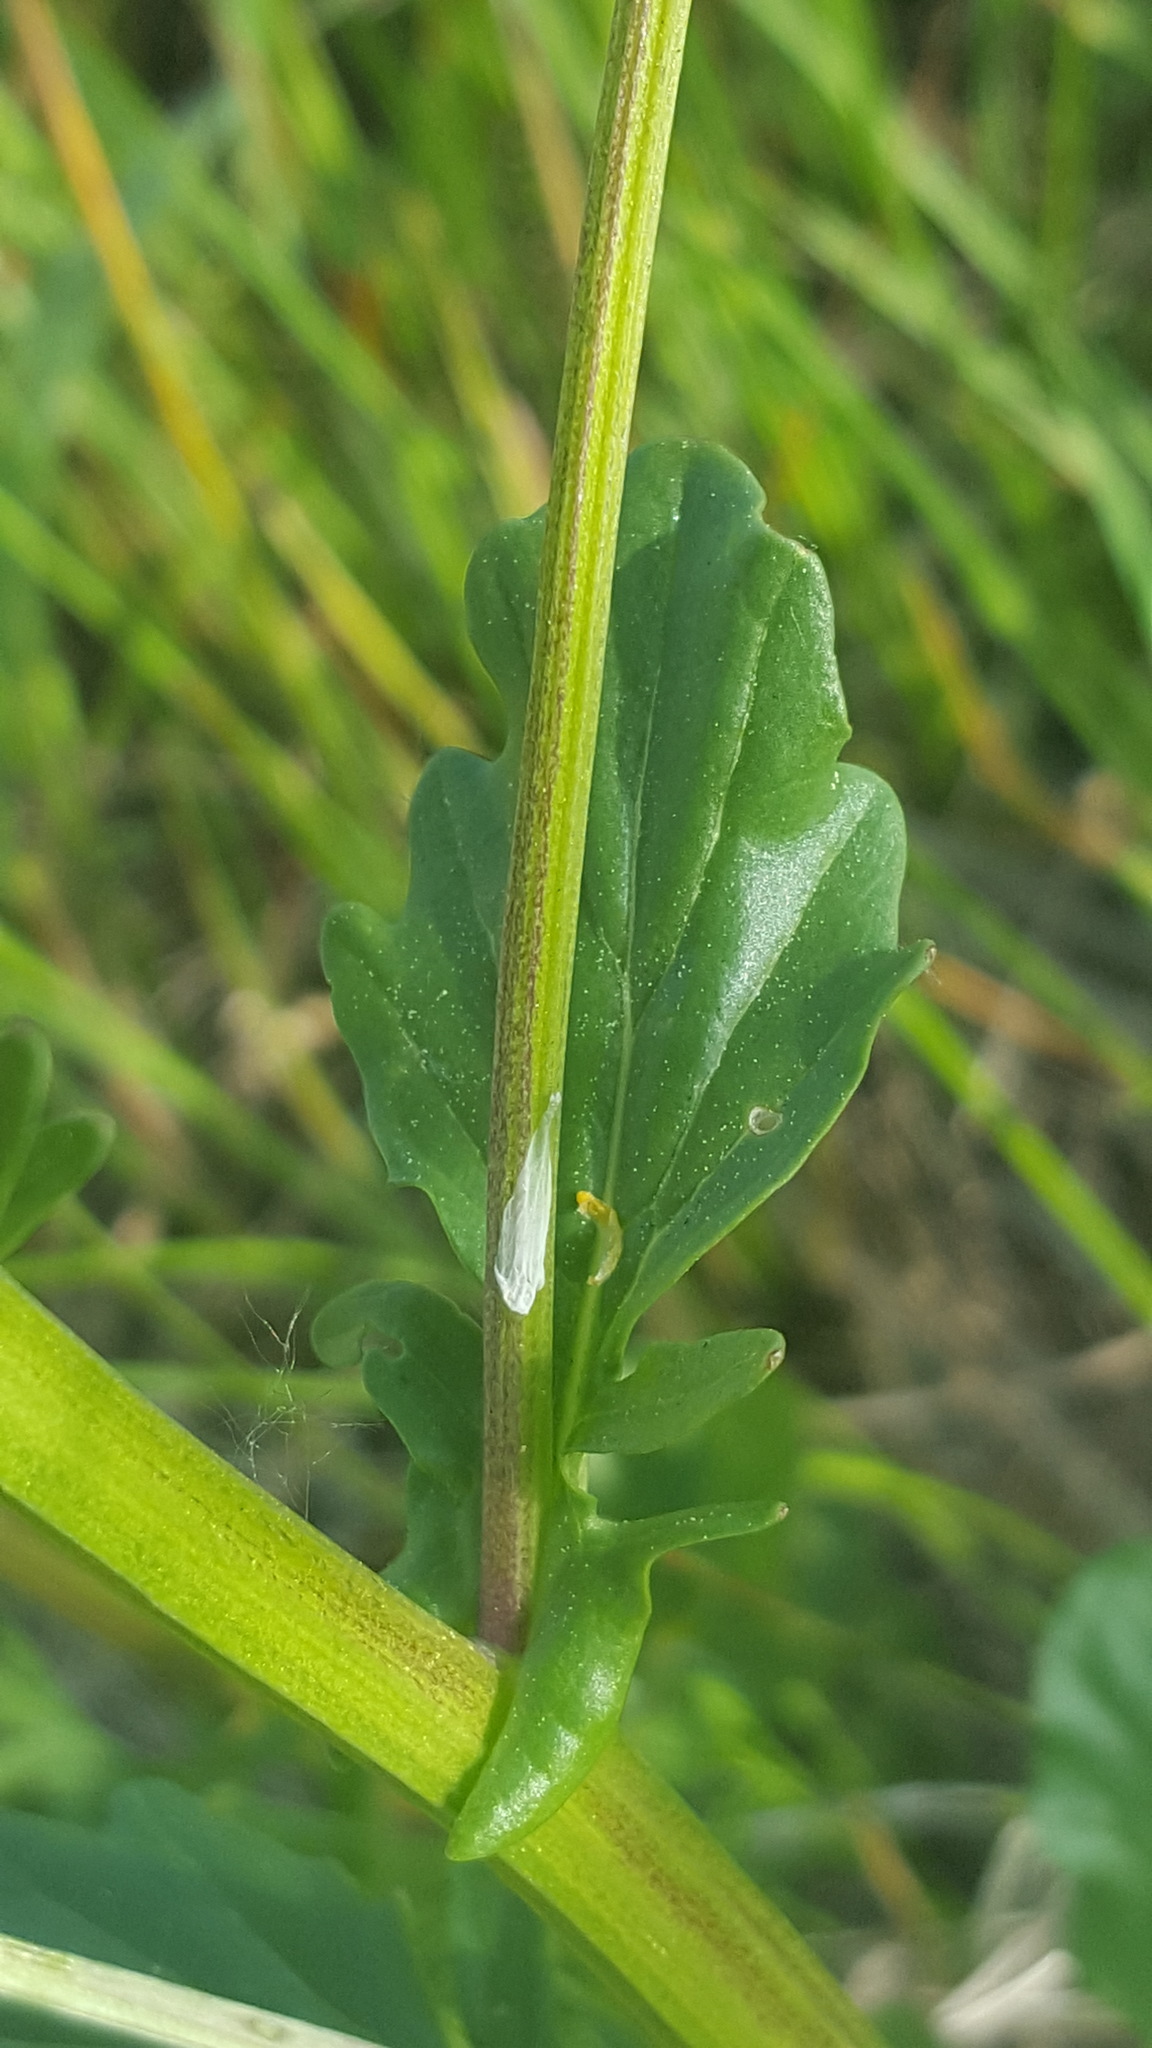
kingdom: Plantae
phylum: Tracheophyta
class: Magnoliopsida
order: Brassicales
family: Brassicaceae
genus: Barbarea
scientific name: Barbarea vulgaris
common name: Cressy-greens
